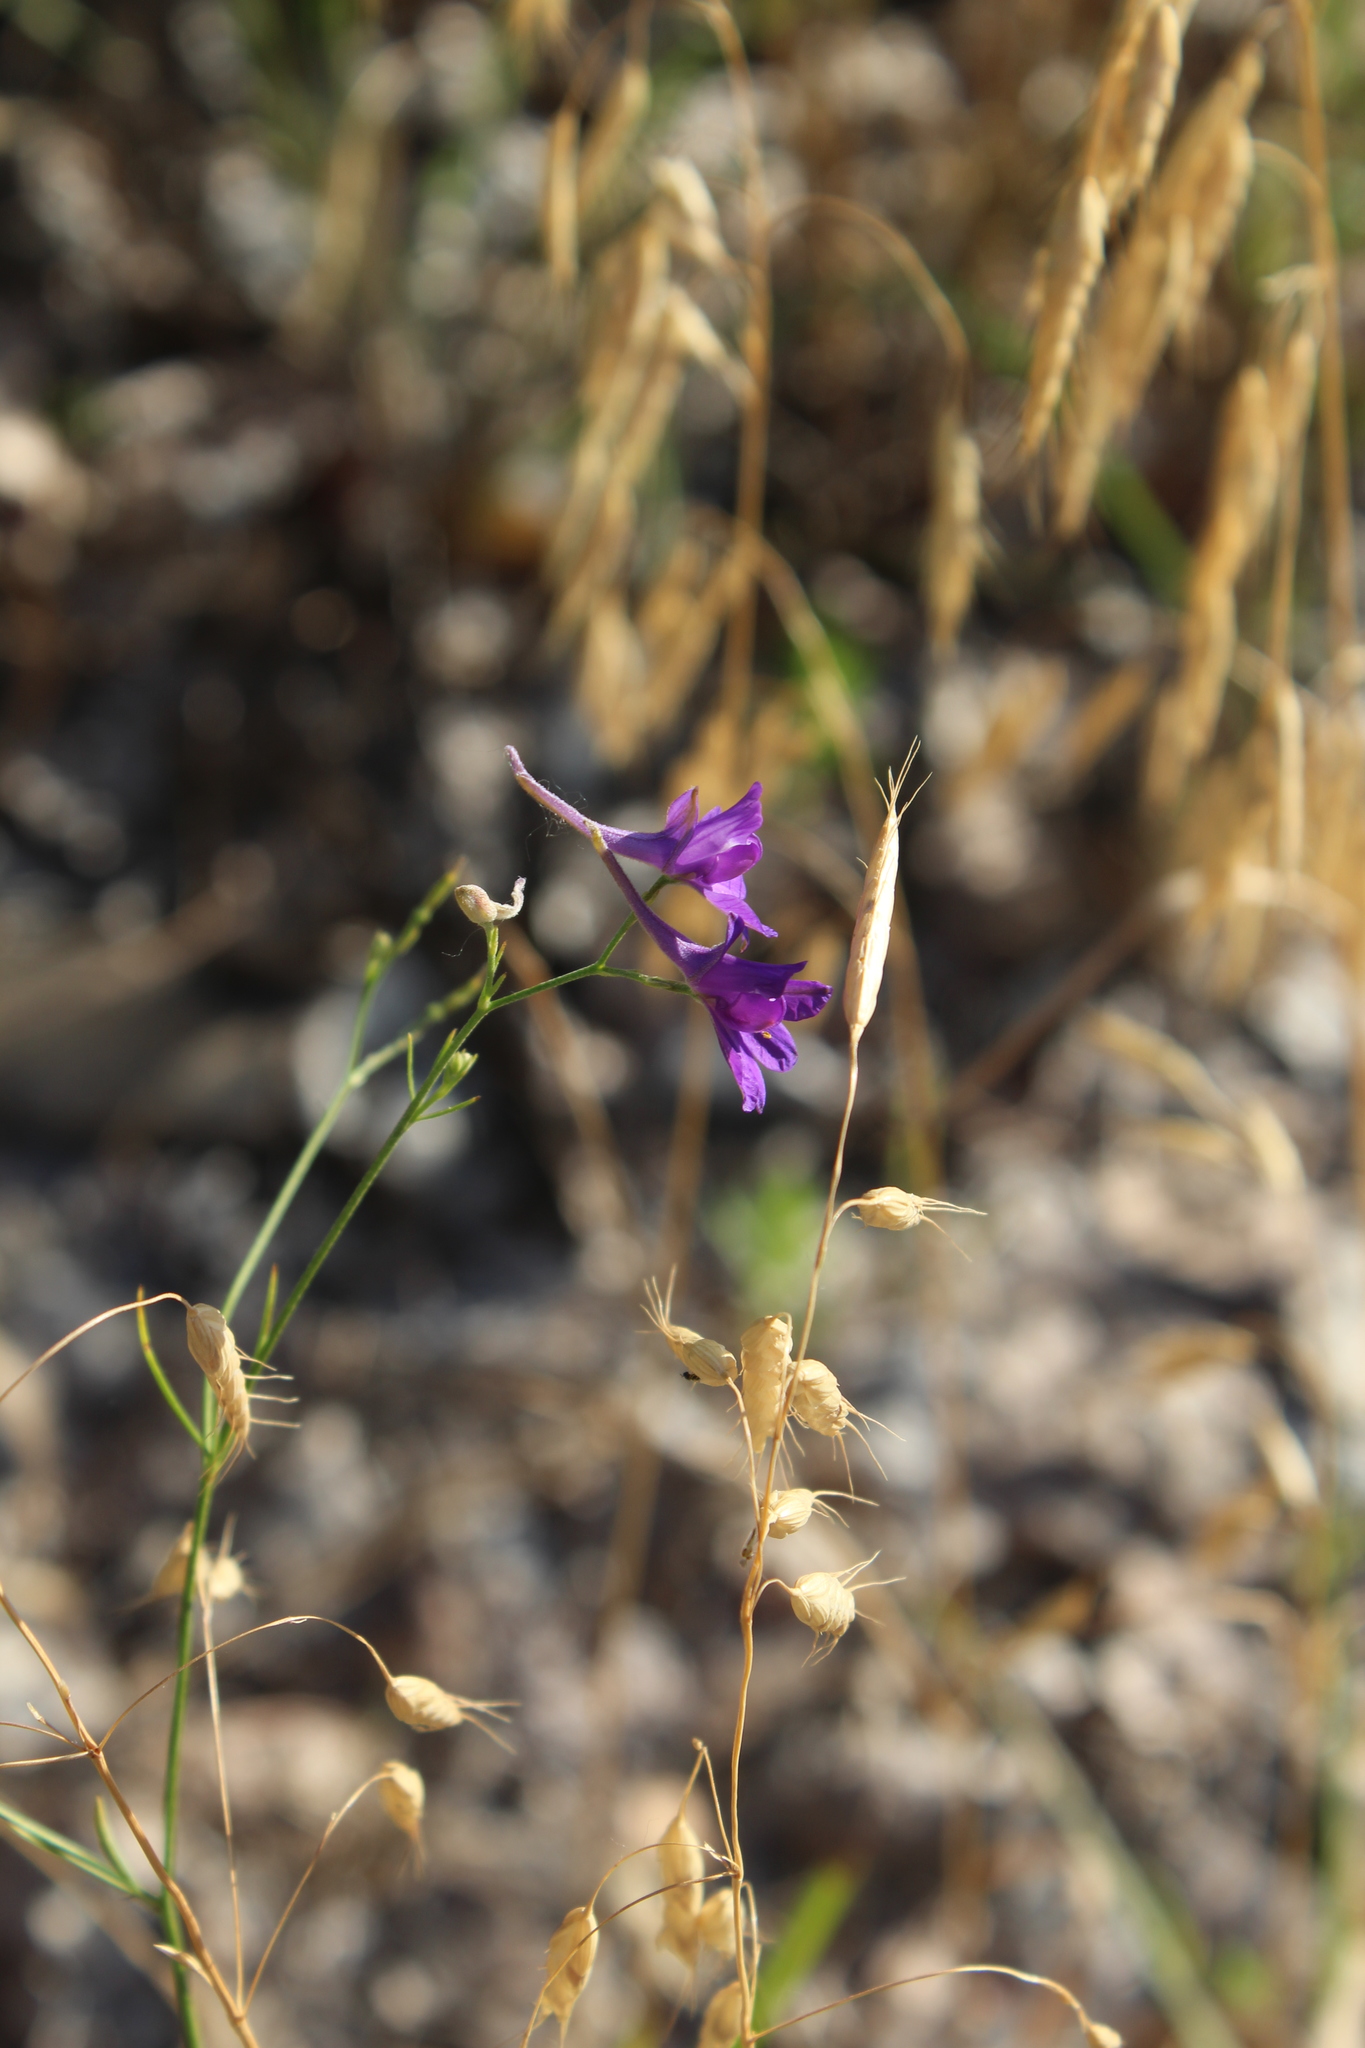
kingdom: Plantae
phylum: Tracheophyta
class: Magnoliopsida
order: Ranunculales
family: Ranunculaceae
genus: Delphinium
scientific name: Delphinium consolida
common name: Branching larkspur
